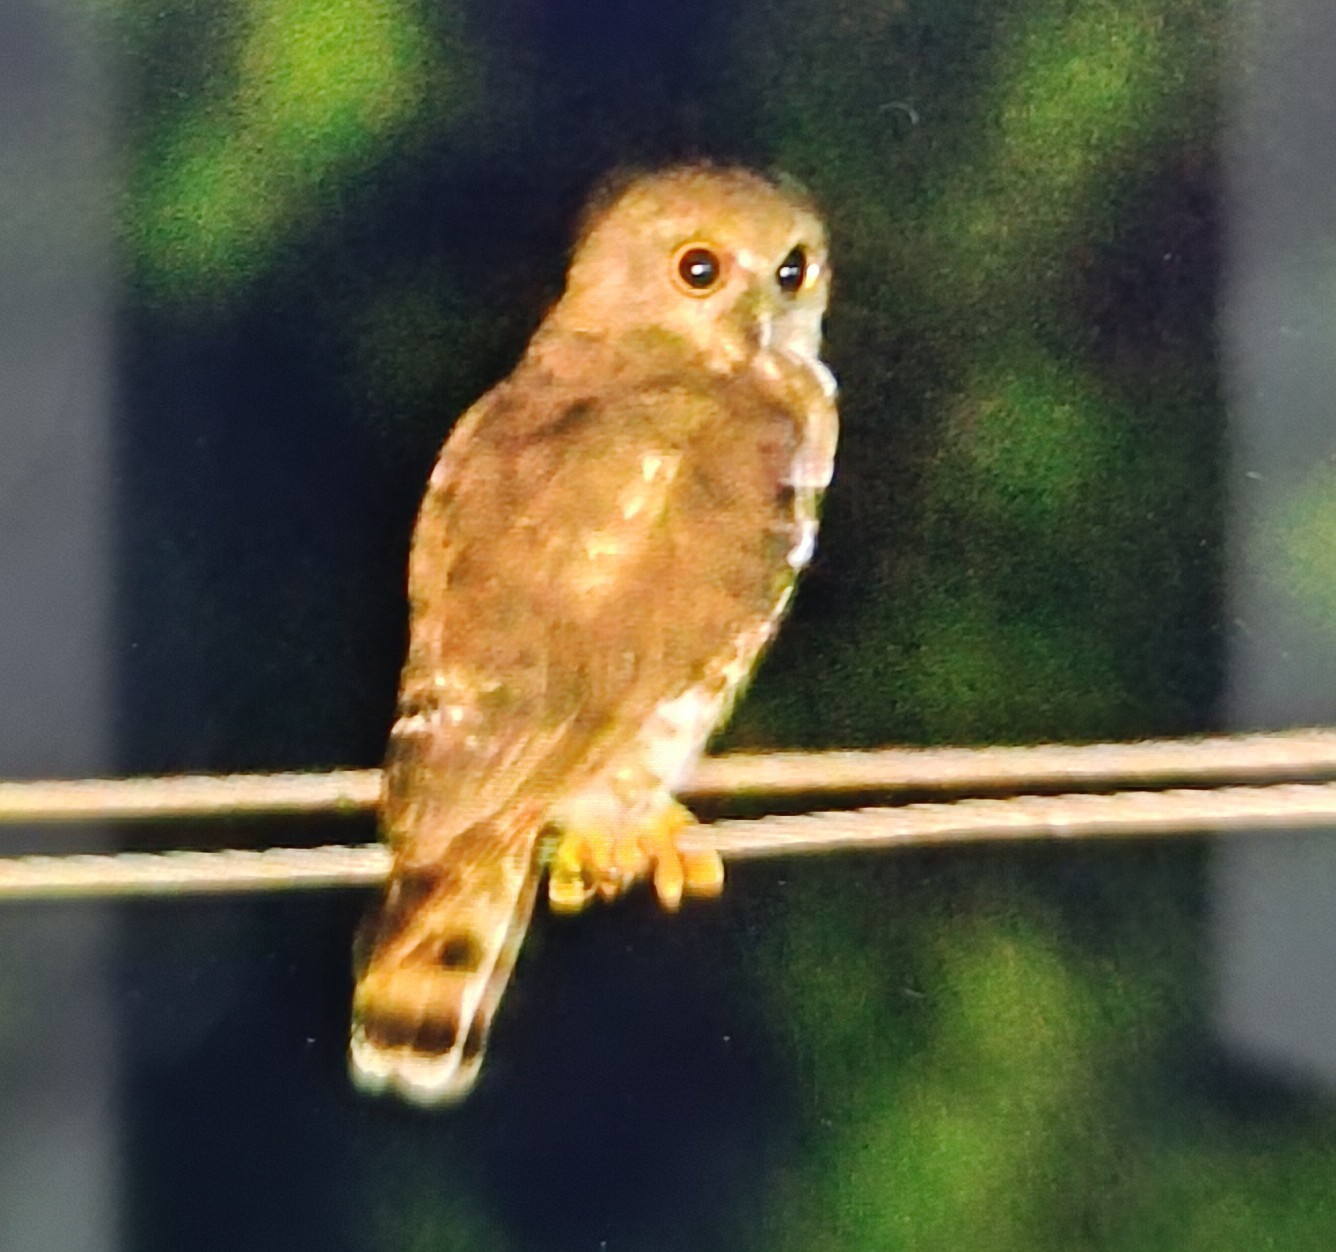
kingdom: Animalia
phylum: Chordata
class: Aves
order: Strigiformes
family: Strigidae
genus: Ninox
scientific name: Ninox scutulata
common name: Brown hawk-owl
